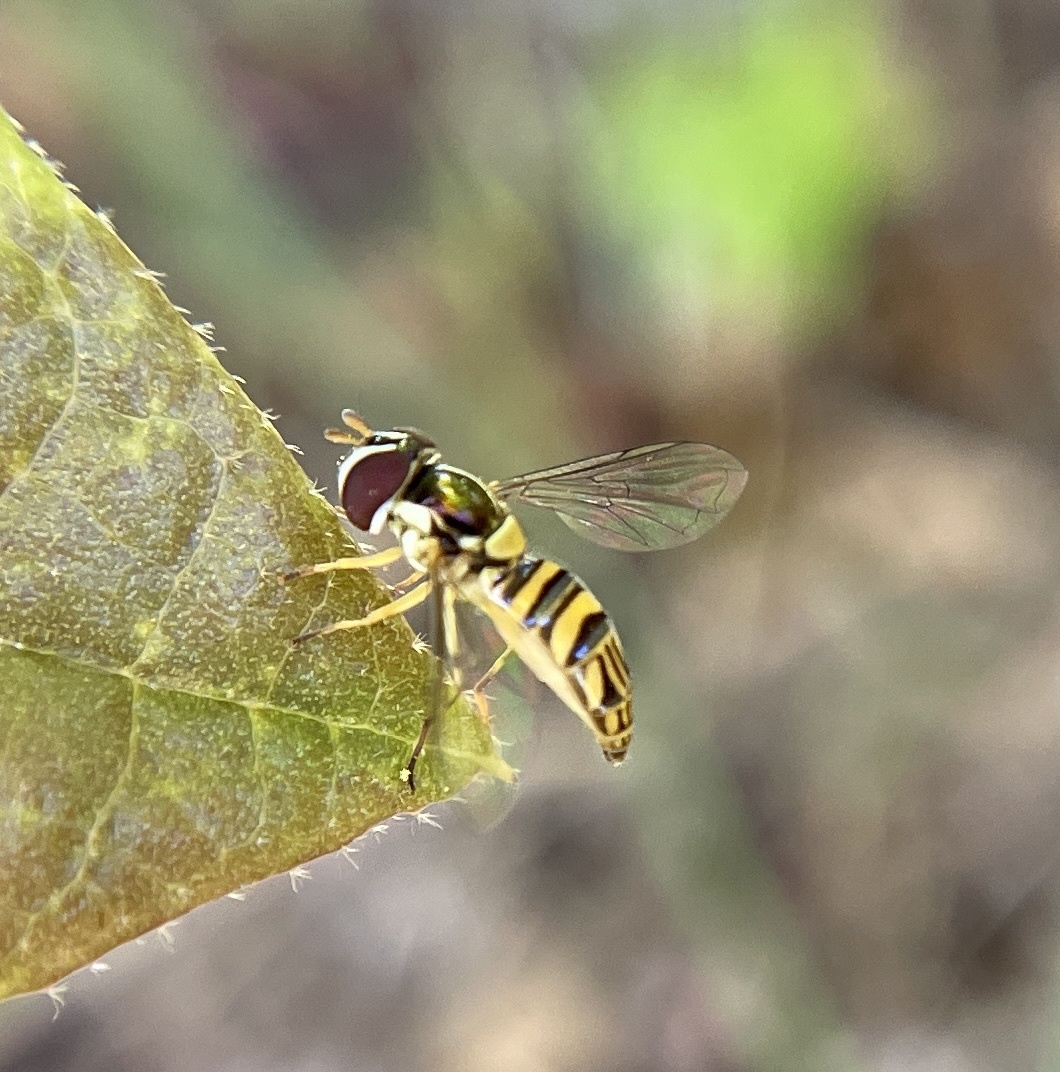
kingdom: Animalia
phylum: Arthropoda
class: Insecta
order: Diptera
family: Syrphidae
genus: Allograpta
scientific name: Allograpta obliqua
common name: Common oblique syrphid
